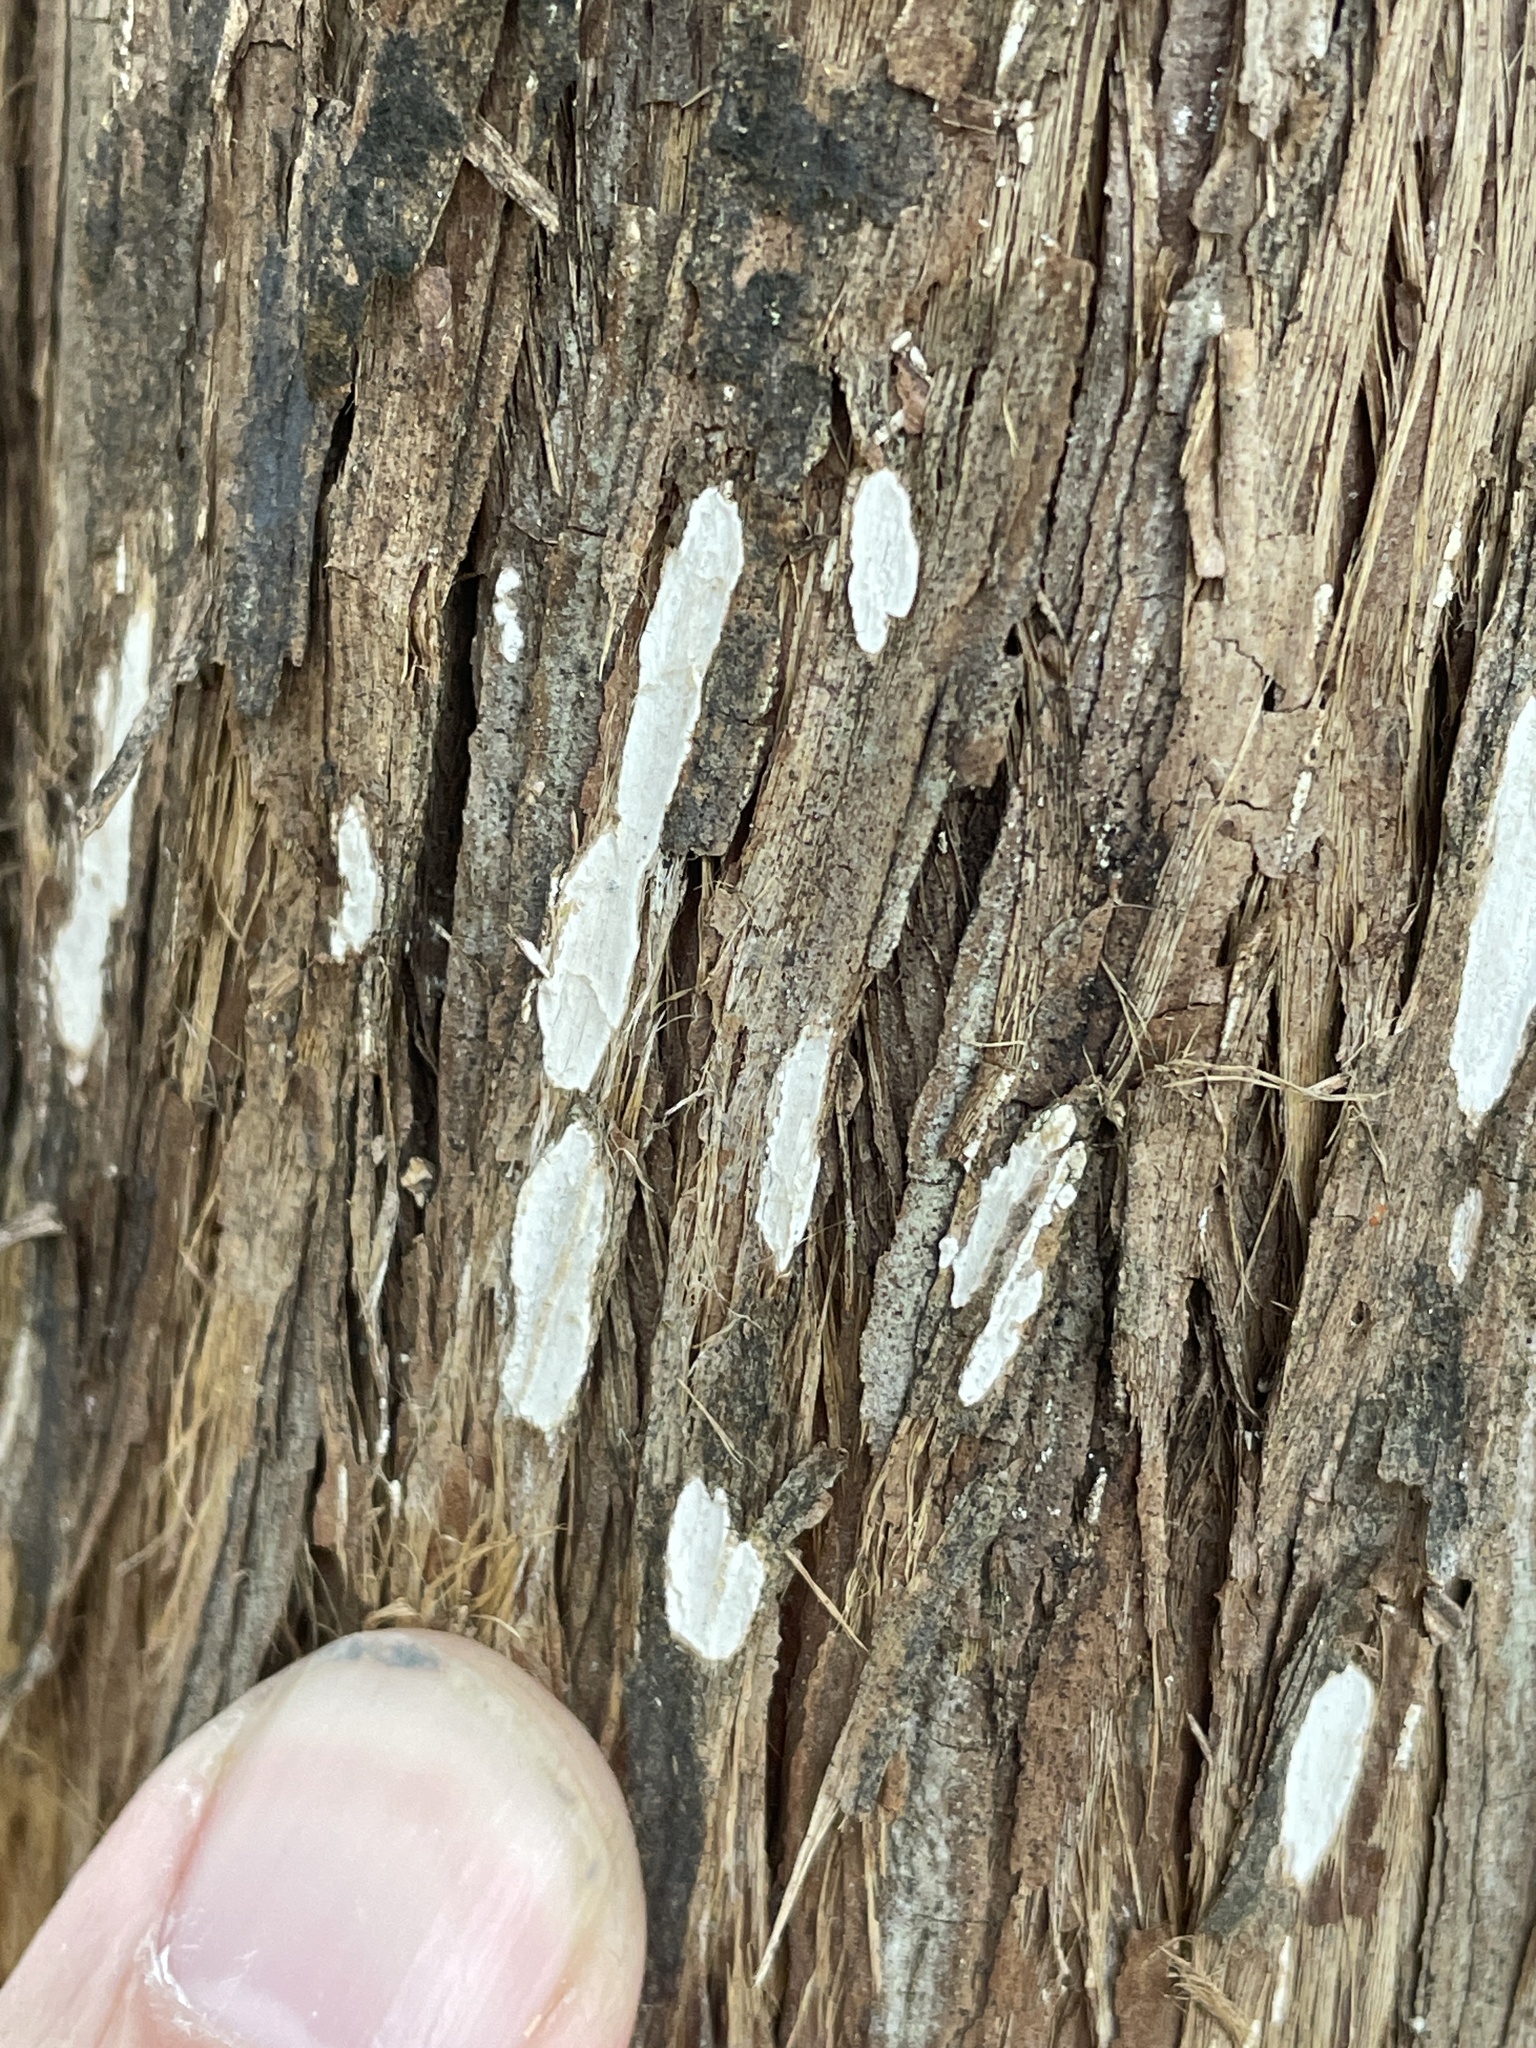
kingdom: Fungi
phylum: Basidiomycota
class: Agaricomycetes
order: Agaricales
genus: Dendrothele
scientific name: Dendrothele nivosa
